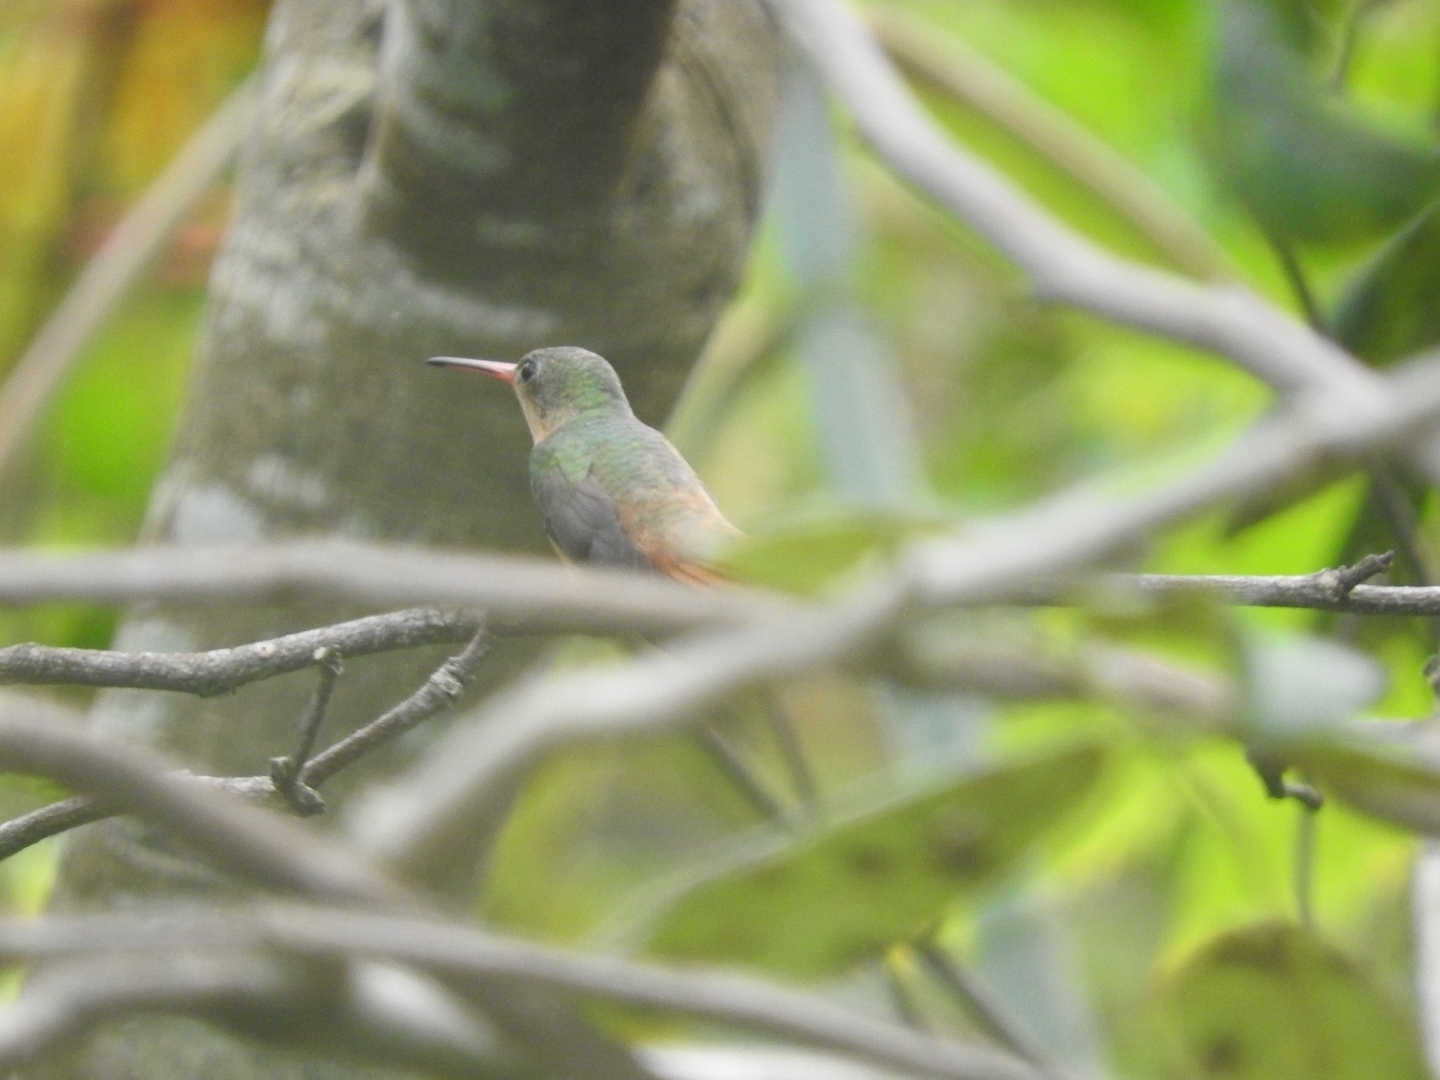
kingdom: Animalia
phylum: Chordata
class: Aves
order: Apodiformes
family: Trochilidae
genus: Amazilia
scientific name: Amazilia rutila
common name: Cinnamon hummingbird
